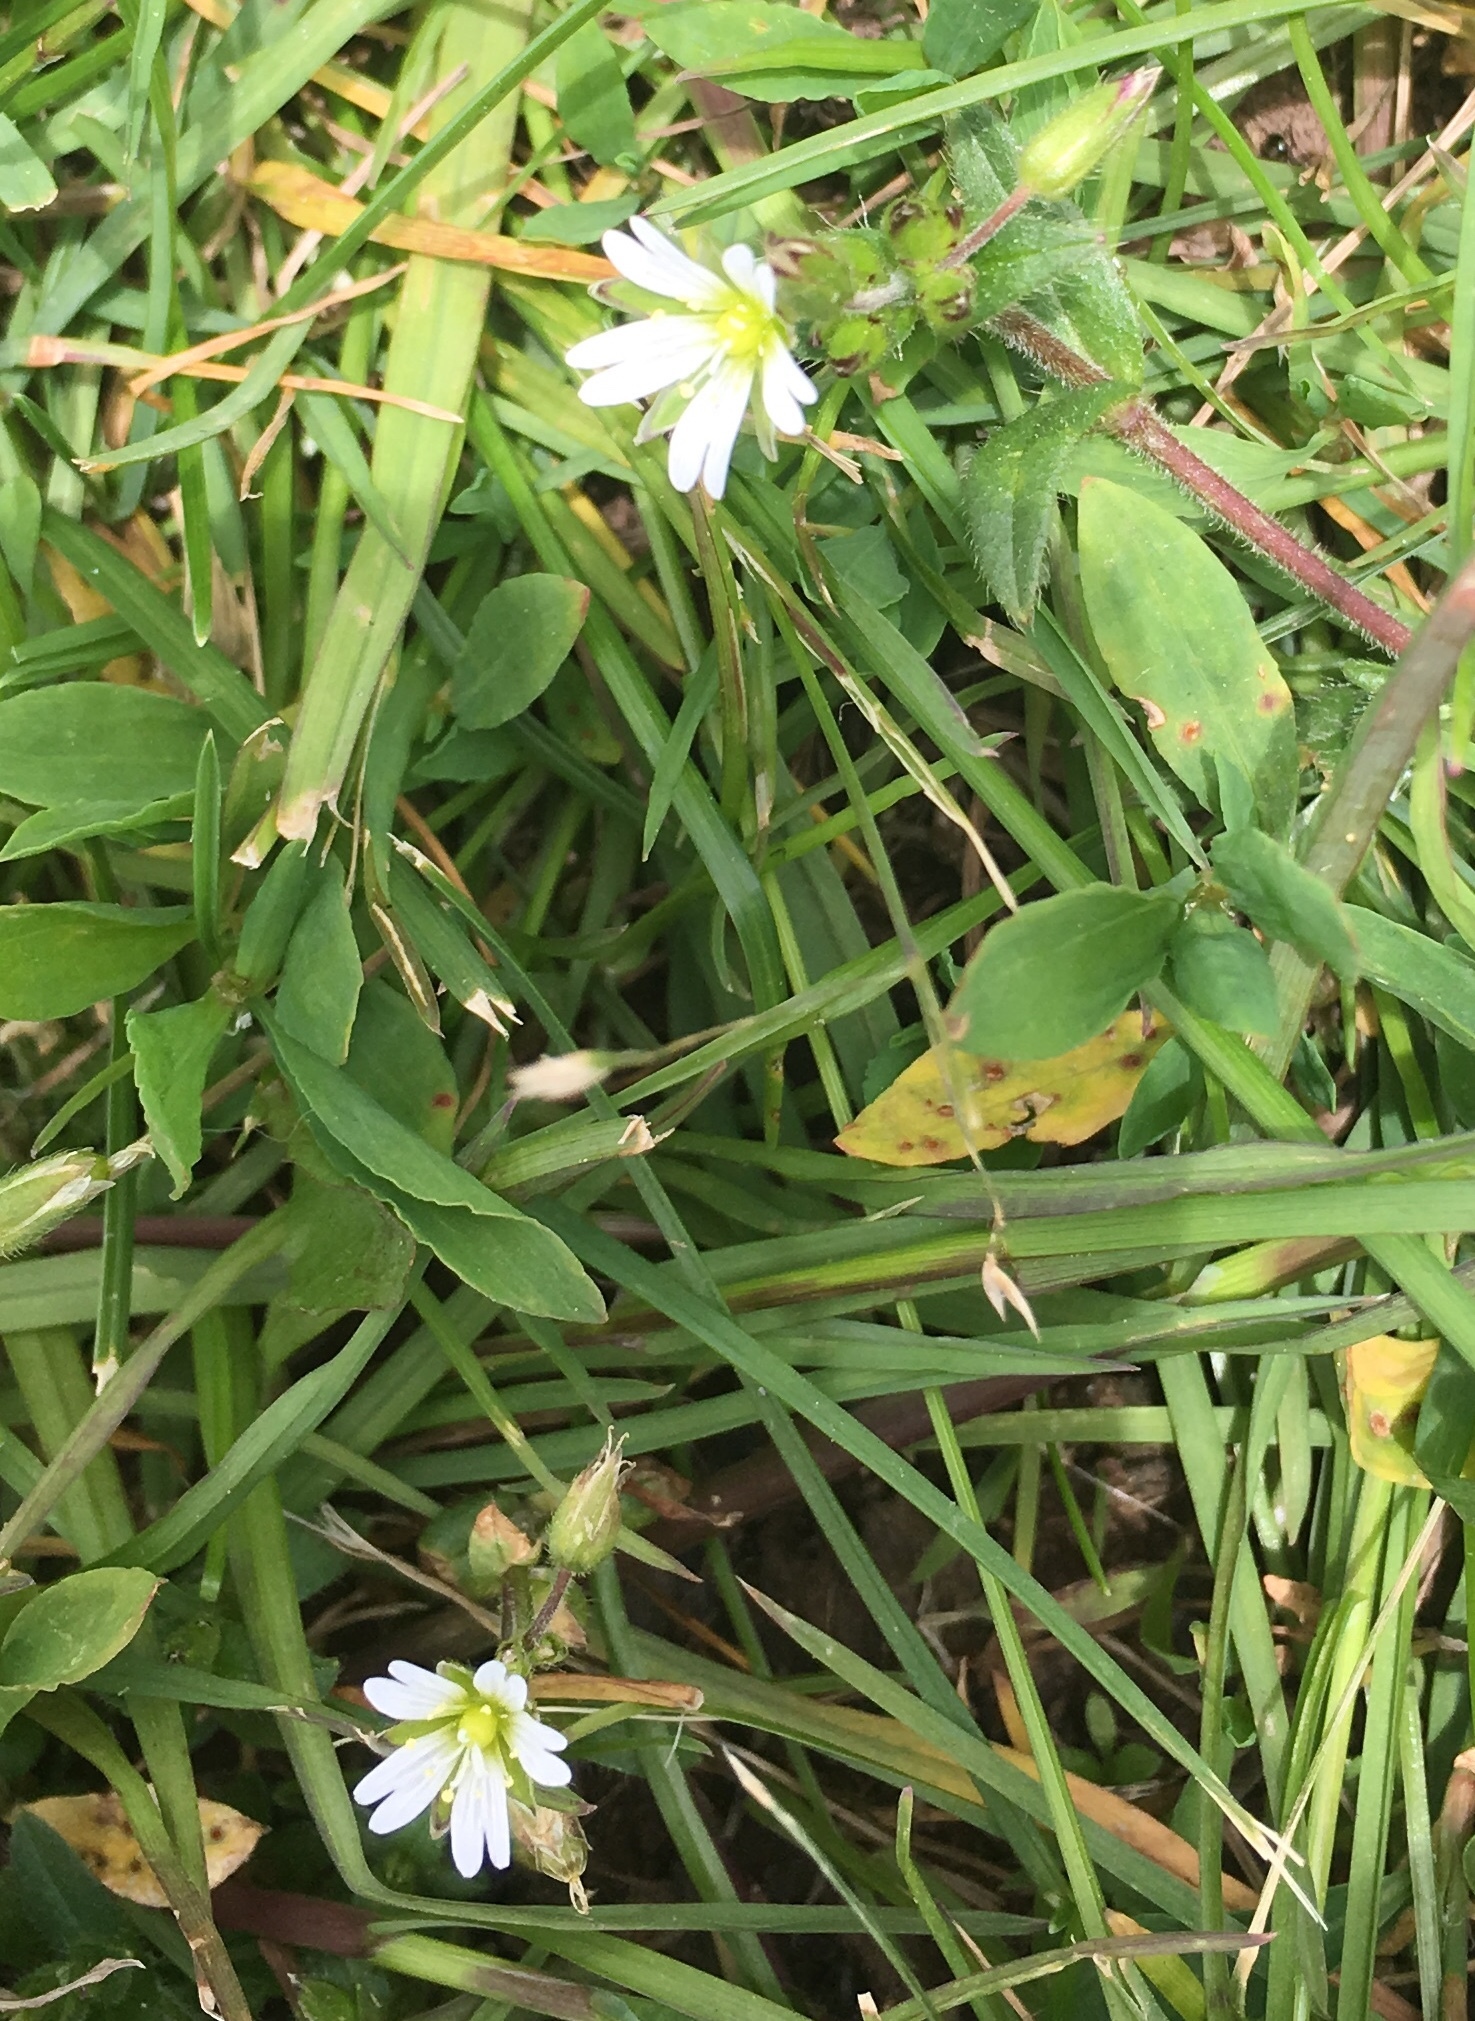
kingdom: Plantae
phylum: Tracheophyta
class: Magnoliopsida
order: Caryophyllales
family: Caryophyllaceae
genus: Cerastium
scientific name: Cerastium fontanum
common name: Common mouse-ear
